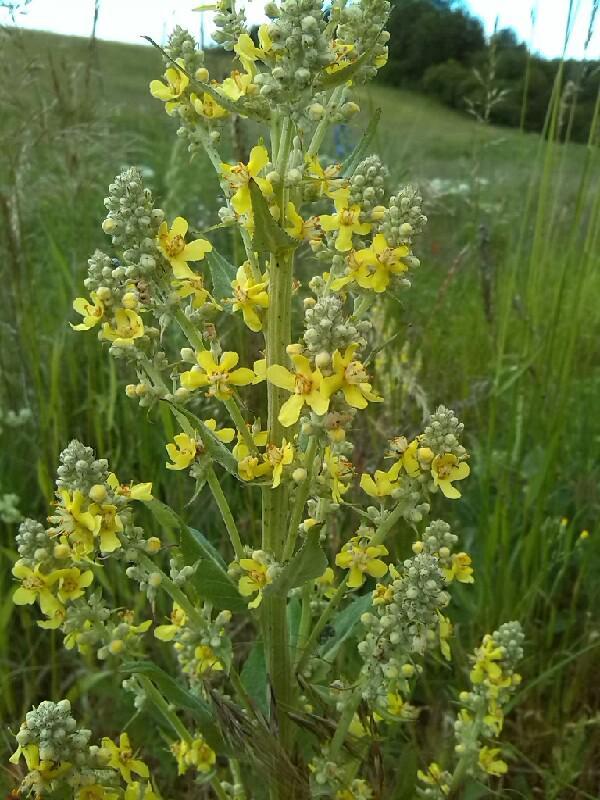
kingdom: Plantae
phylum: Tracheophyta
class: Magnoliopsida
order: Lamiales
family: Scrophulariaceae
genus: Verbascum
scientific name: Verbascum lychnitis
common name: White mullein
